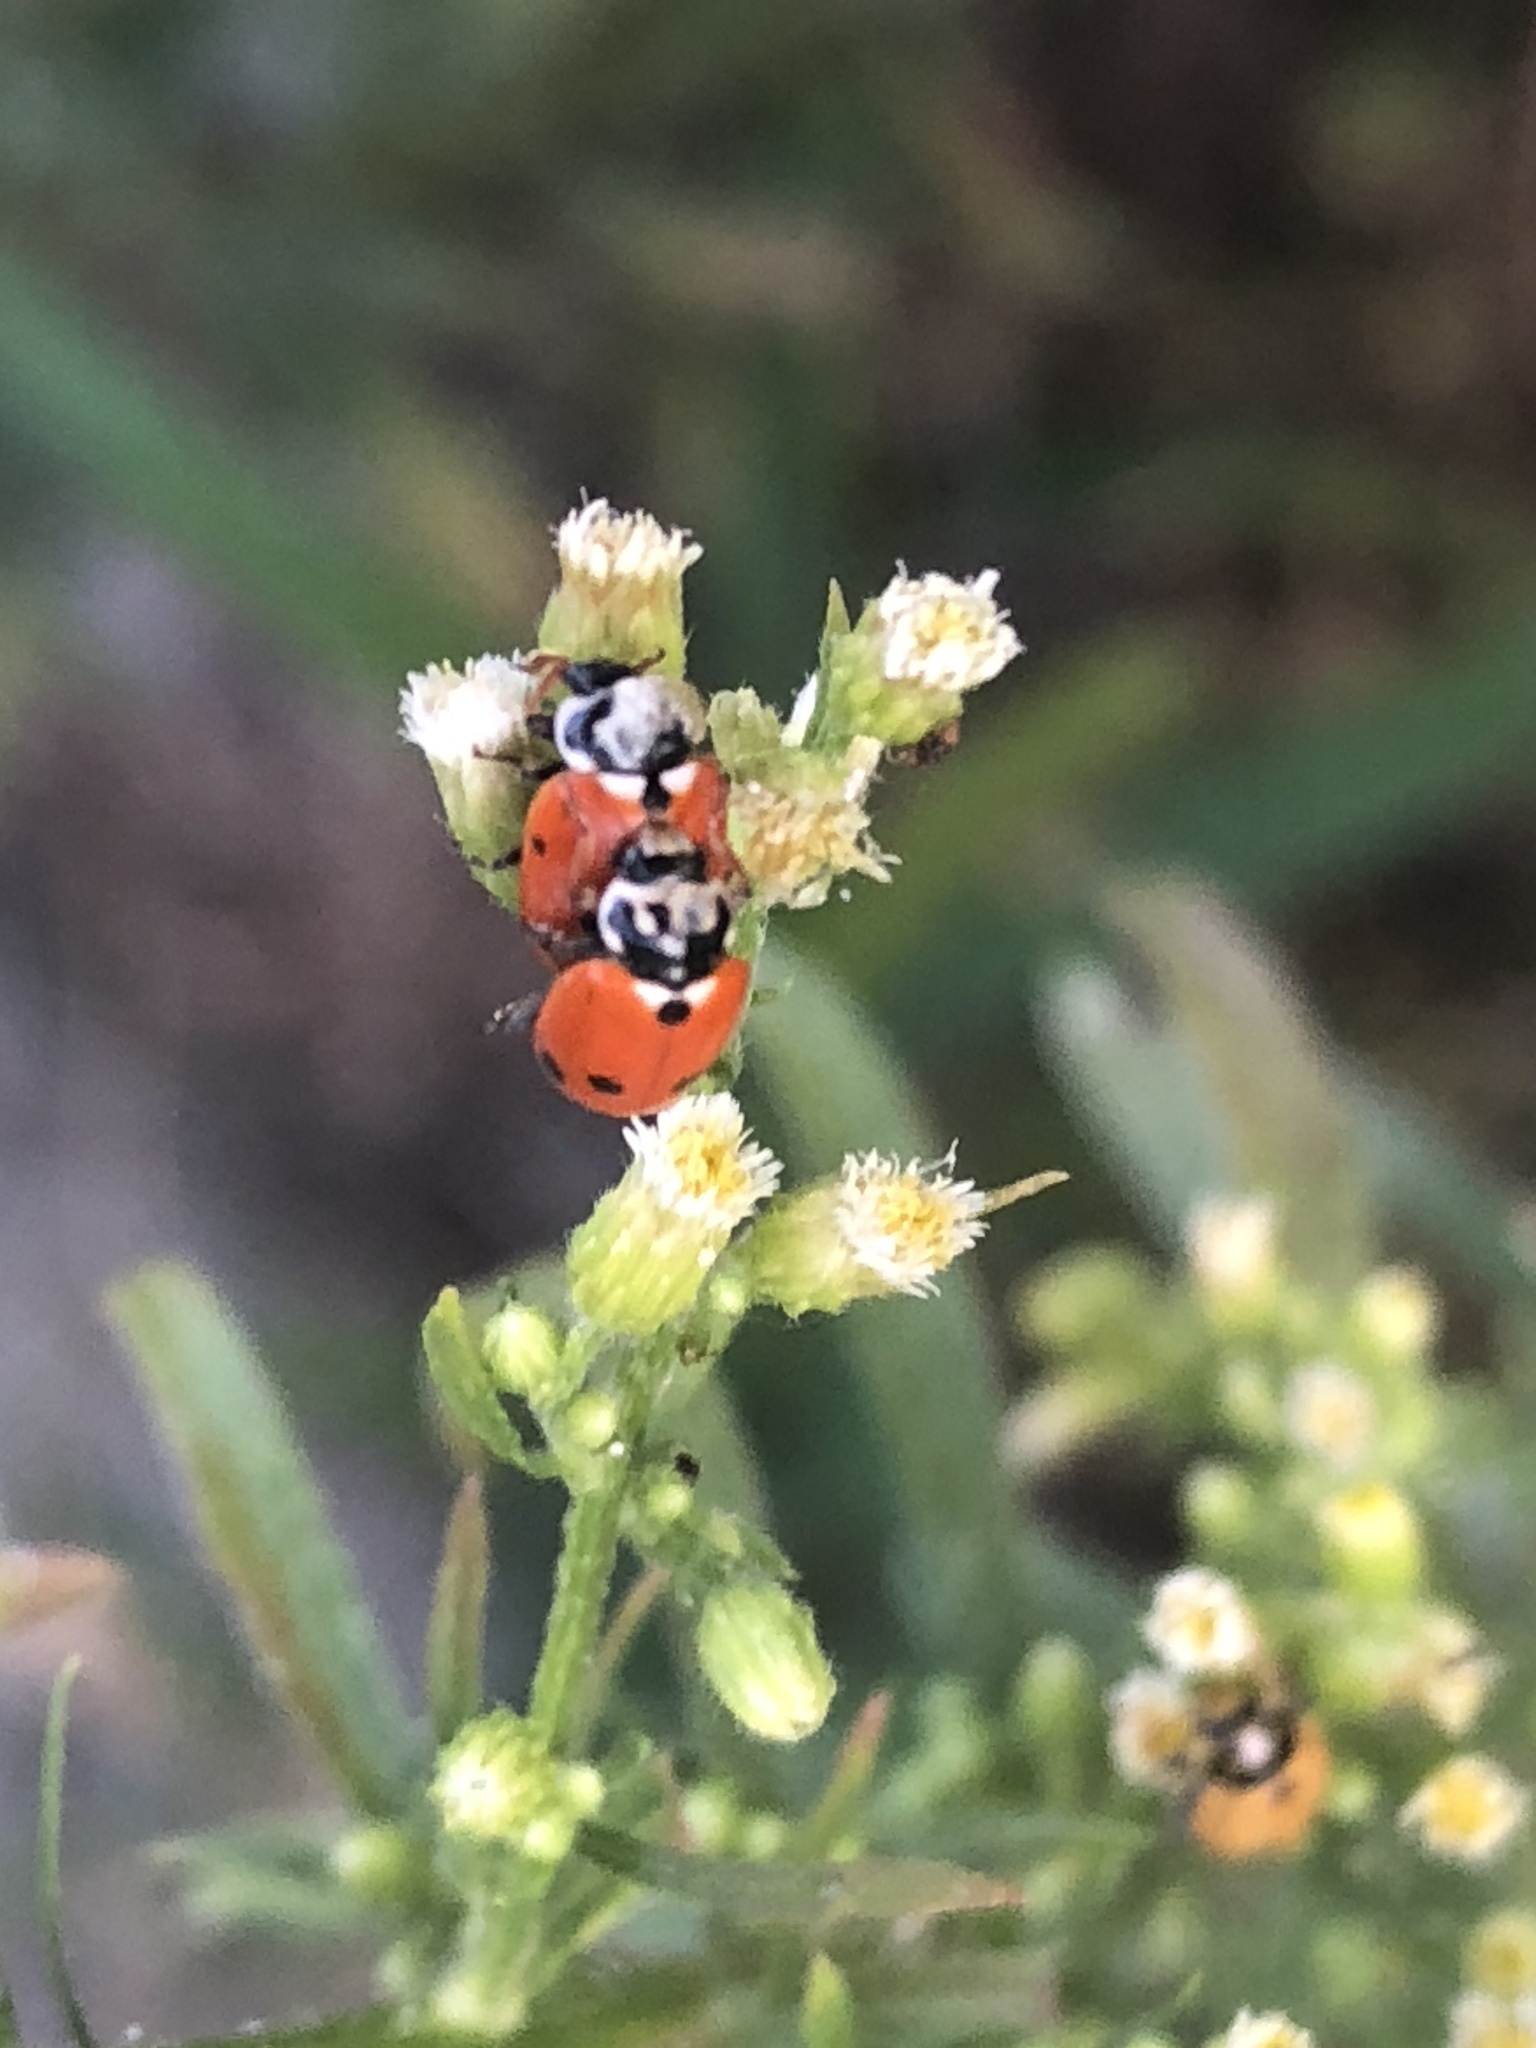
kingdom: Animalia
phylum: Arthropoda
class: Insecta
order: Coleoptera
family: Coccinellidae
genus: Hippodamia
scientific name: Hippodamia variegata
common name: Ladybird beetle
